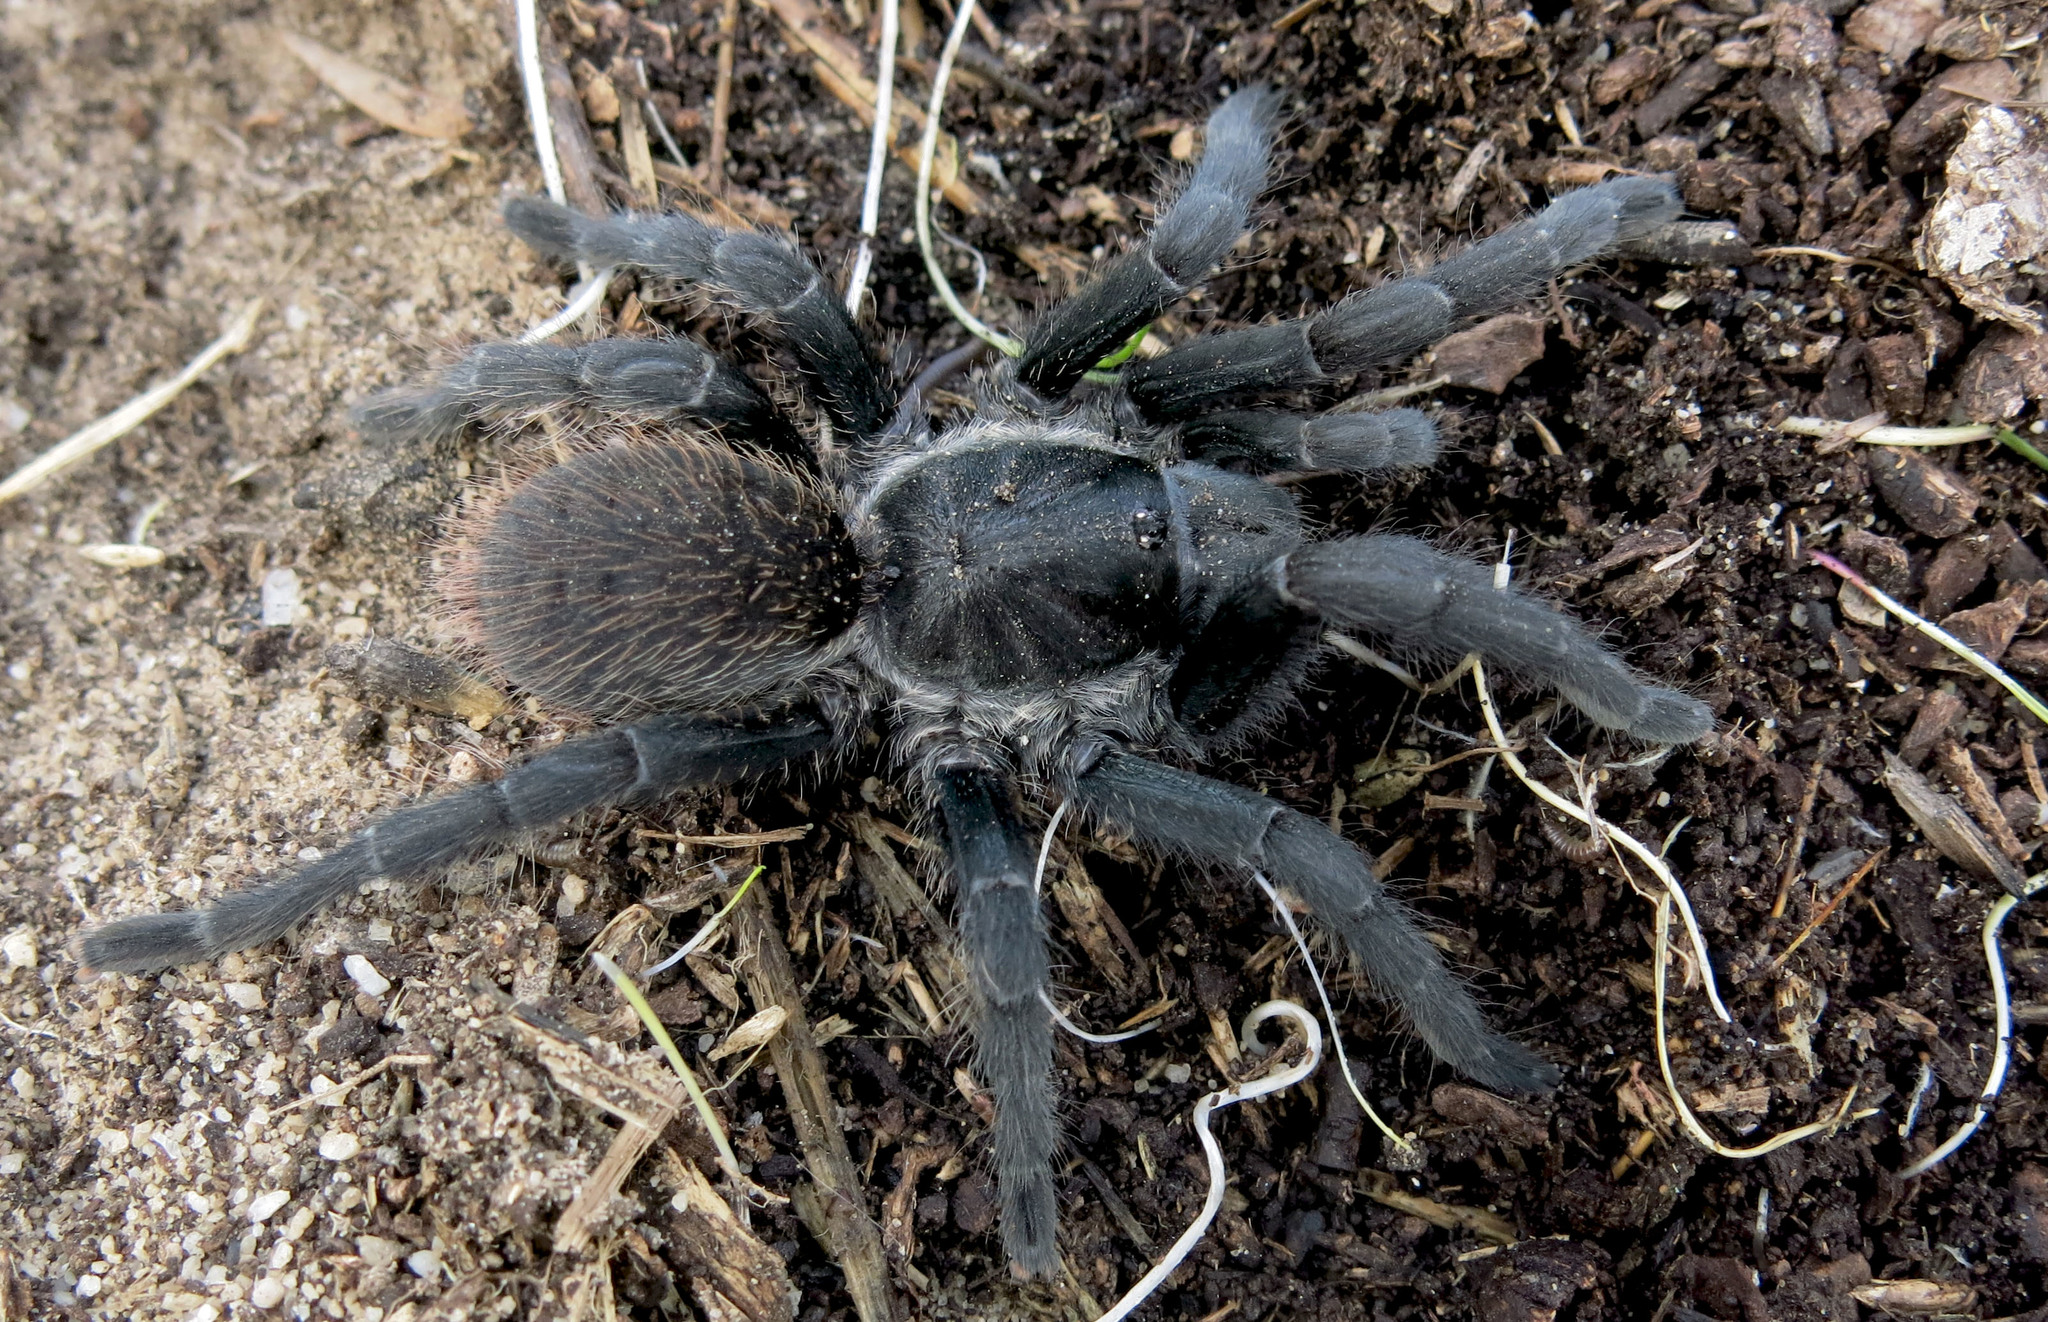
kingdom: Animalia
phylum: Arthropoda
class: Arachnida
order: Araneae
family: Theraphosidae
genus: Harpactira
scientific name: Harpactira atra
